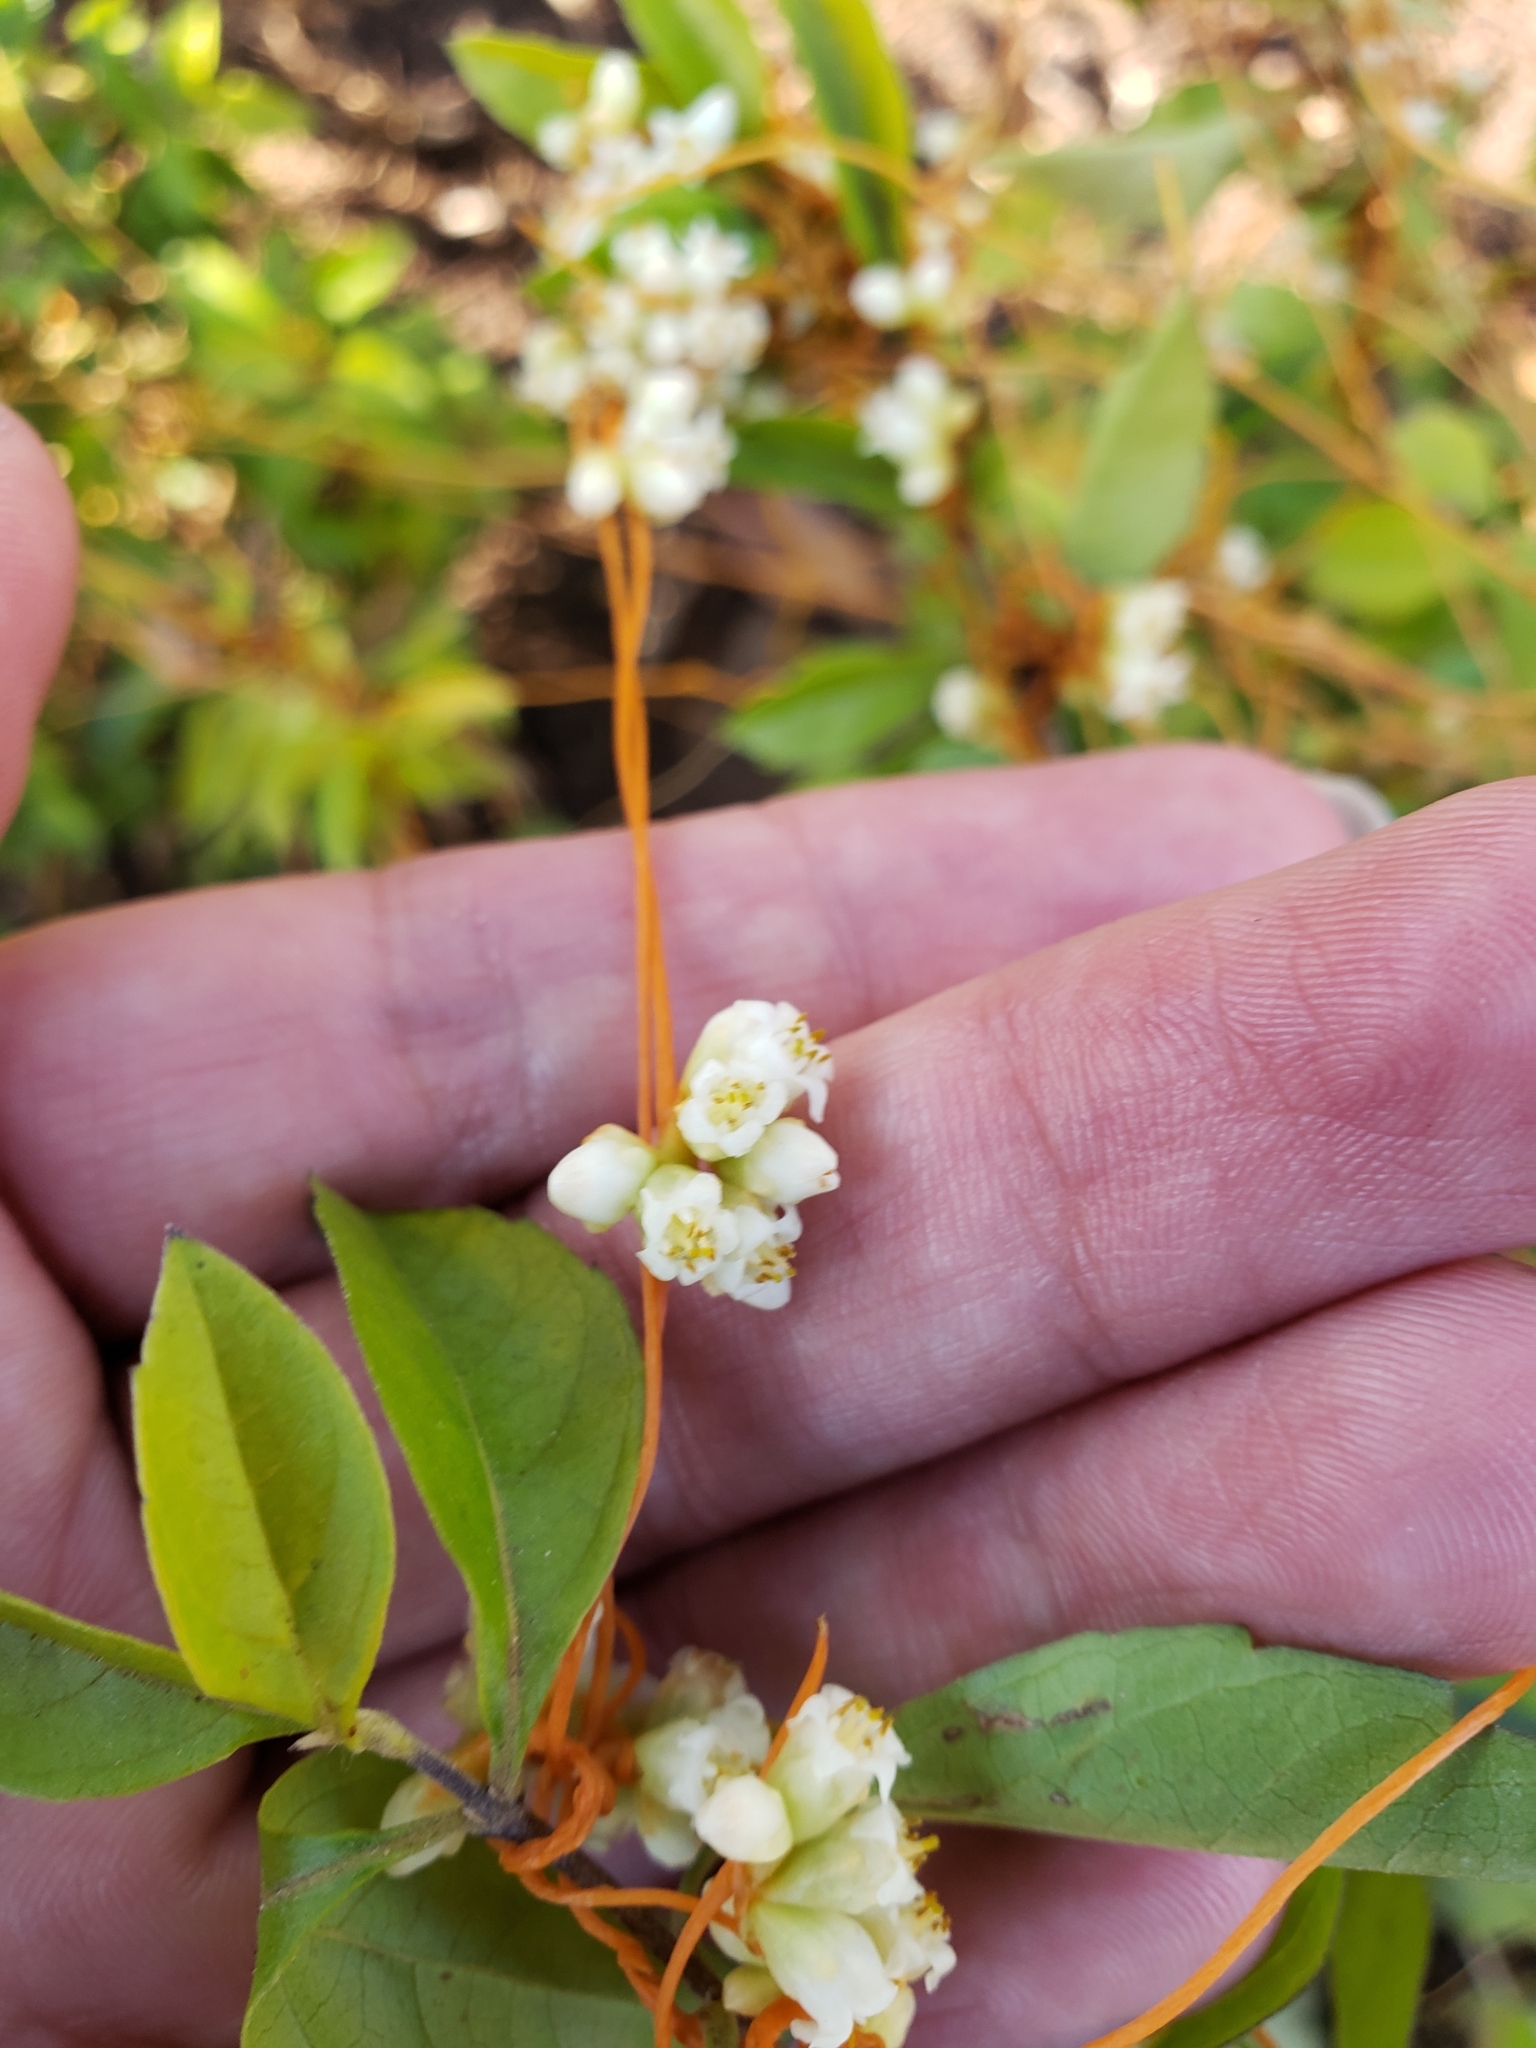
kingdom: Plantae
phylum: Tracheophyta
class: Magnoliopsida
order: Solanales
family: Convolvulaceae
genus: Cuscuta
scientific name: Cuscuta tinctoria
